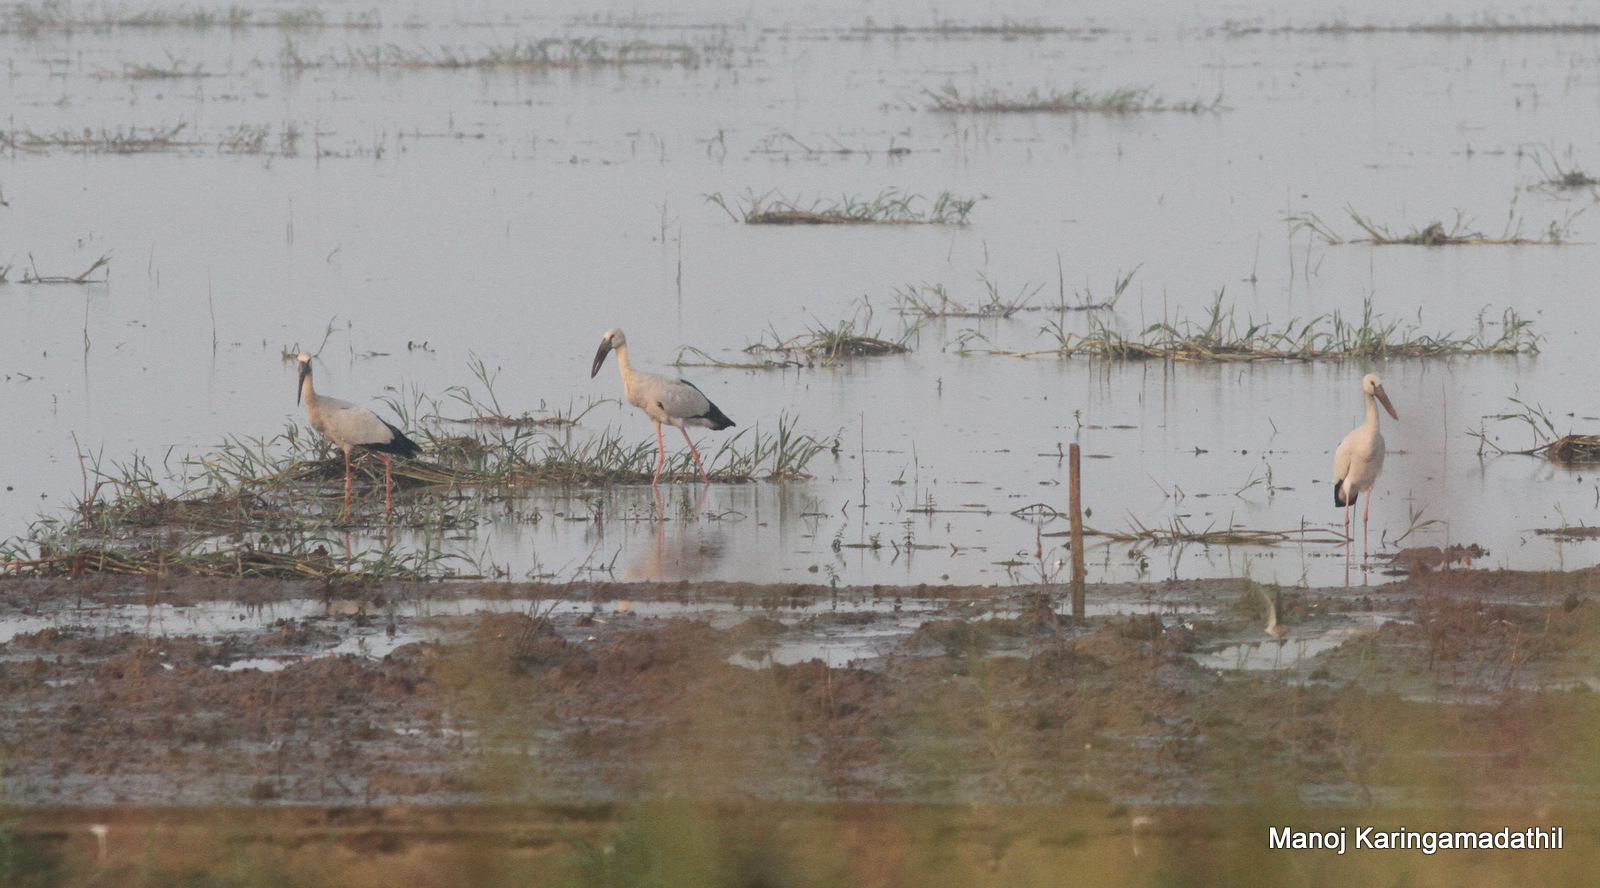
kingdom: Animalia
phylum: Chordata
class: Aves
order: Ciconiiformes
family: Ciconiidae
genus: Anastomus
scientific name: Anastomus oscitans
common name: Asian openbill
